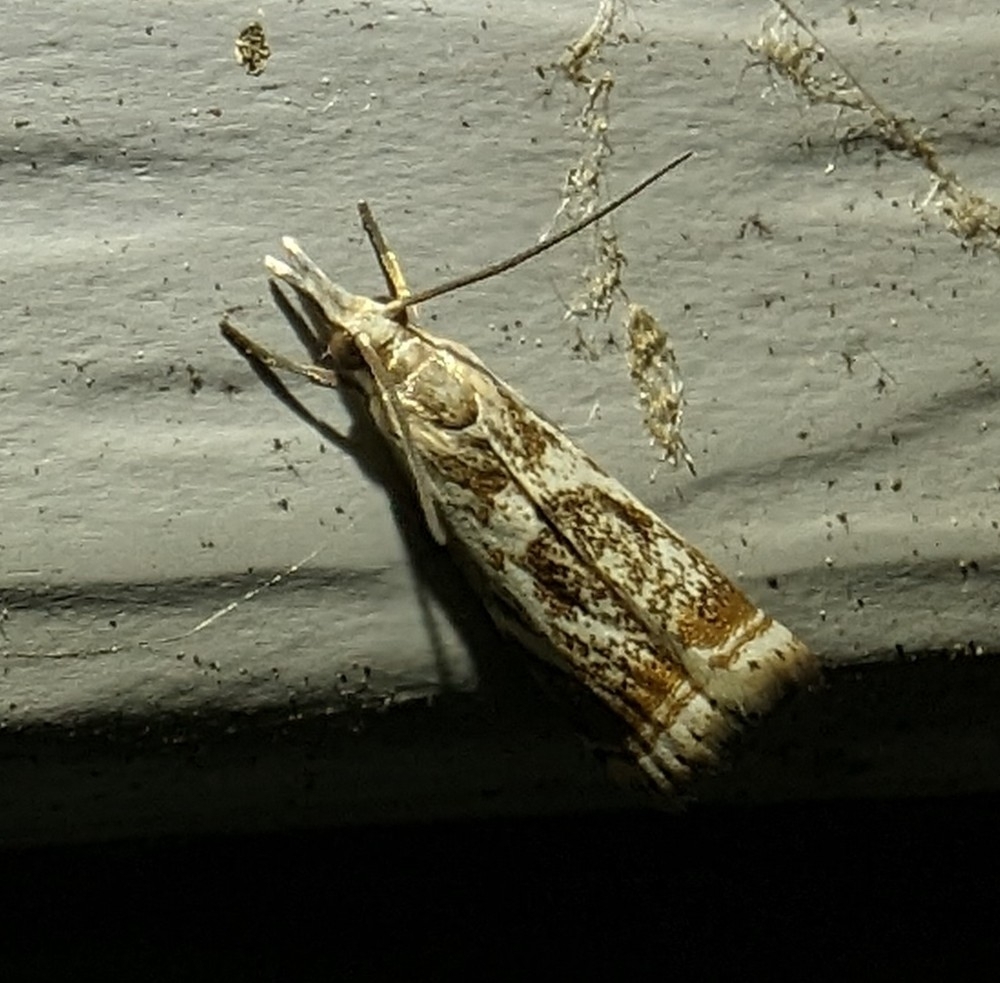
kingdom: Animalia
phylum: Arthropoda
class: Insecta
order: Lepidoptera
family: Crambidae
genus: Microcrambus
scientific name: Microcrambus elegans
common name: Elegant grass-veneer
